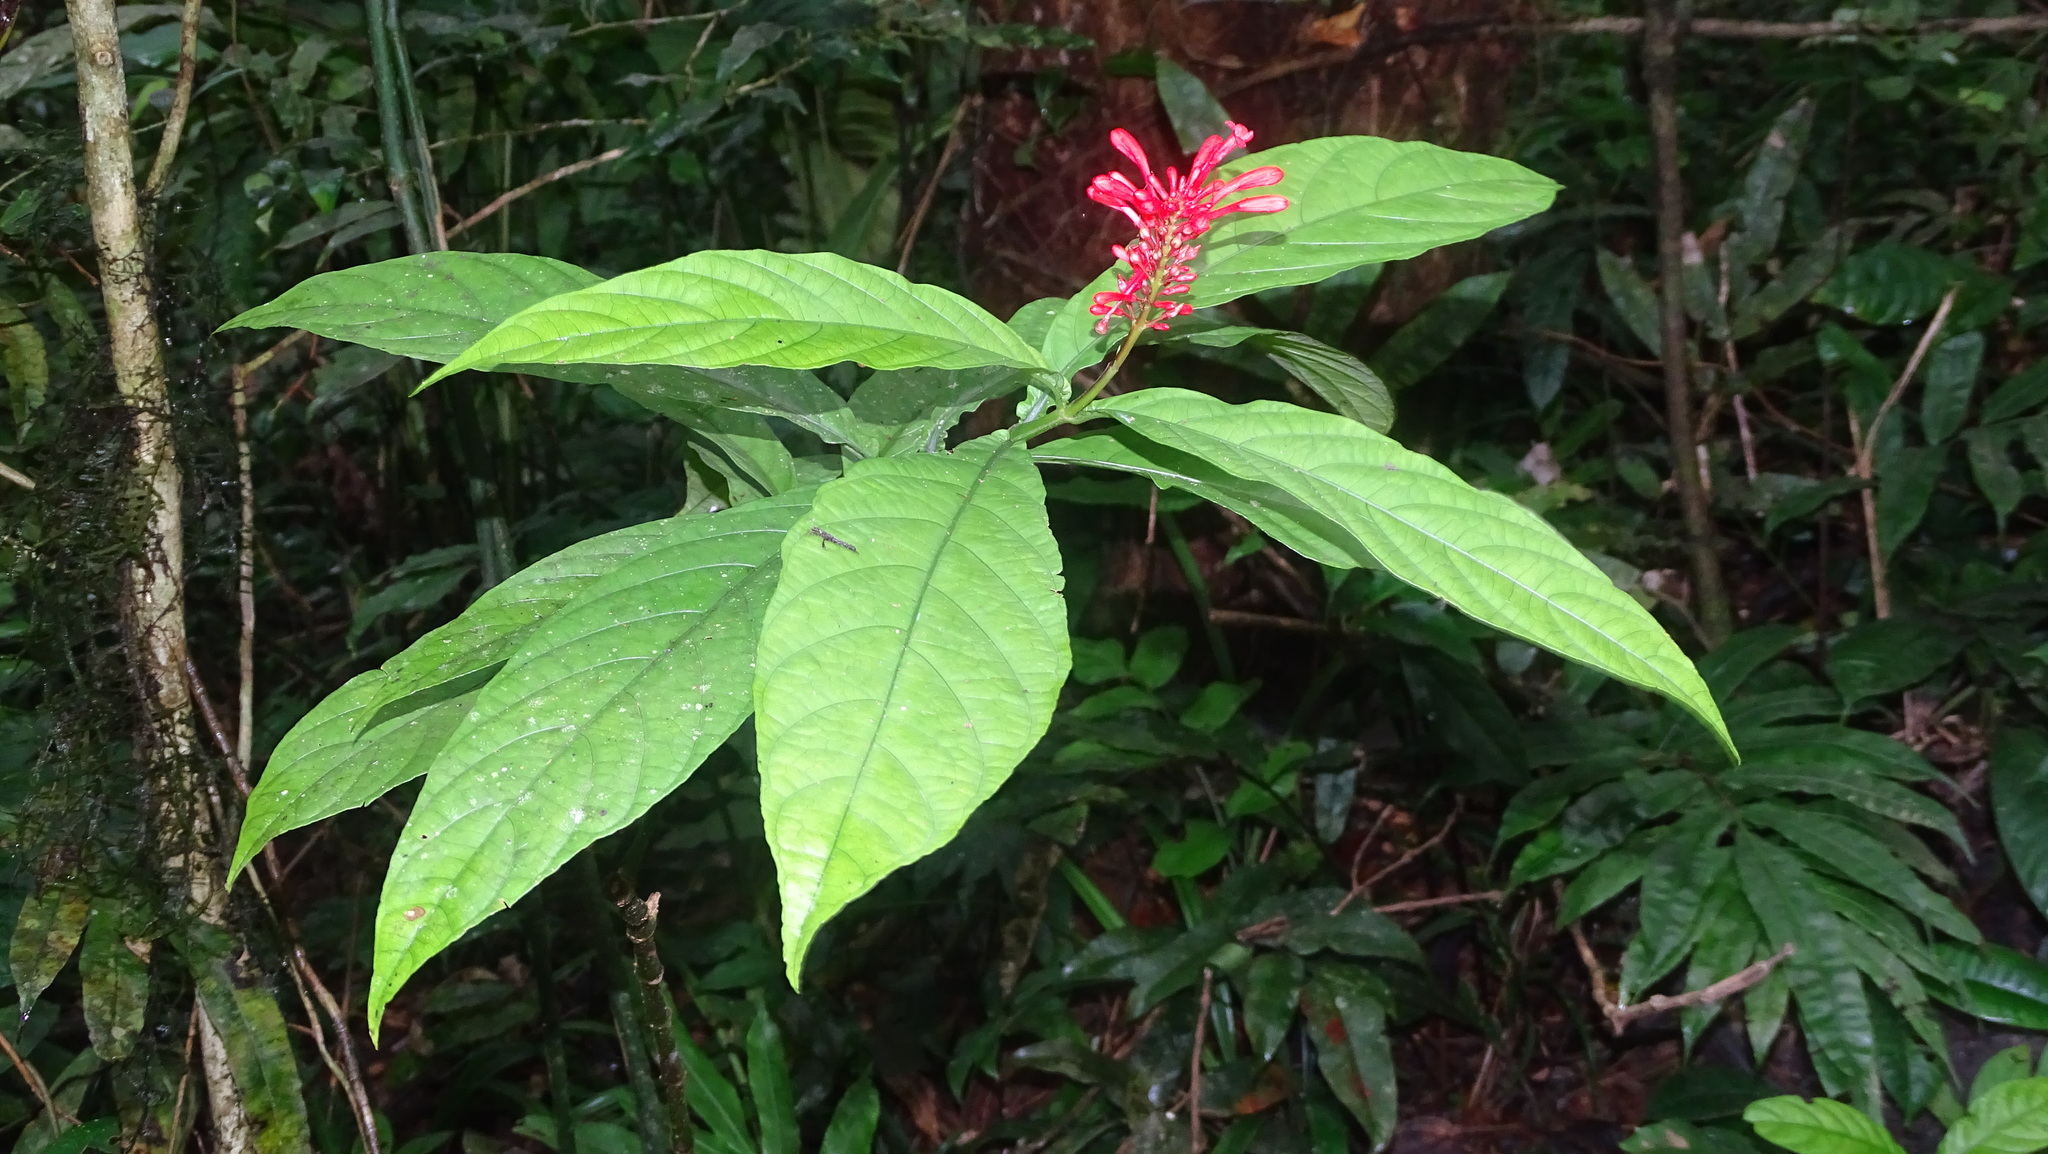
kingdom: Plantae
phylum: Tracheophyta
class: Magnoliopsida
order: Lamiales
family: Acanthaceae
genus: Odontonema
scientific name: Odontonema tubaeforme
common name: Firespike
